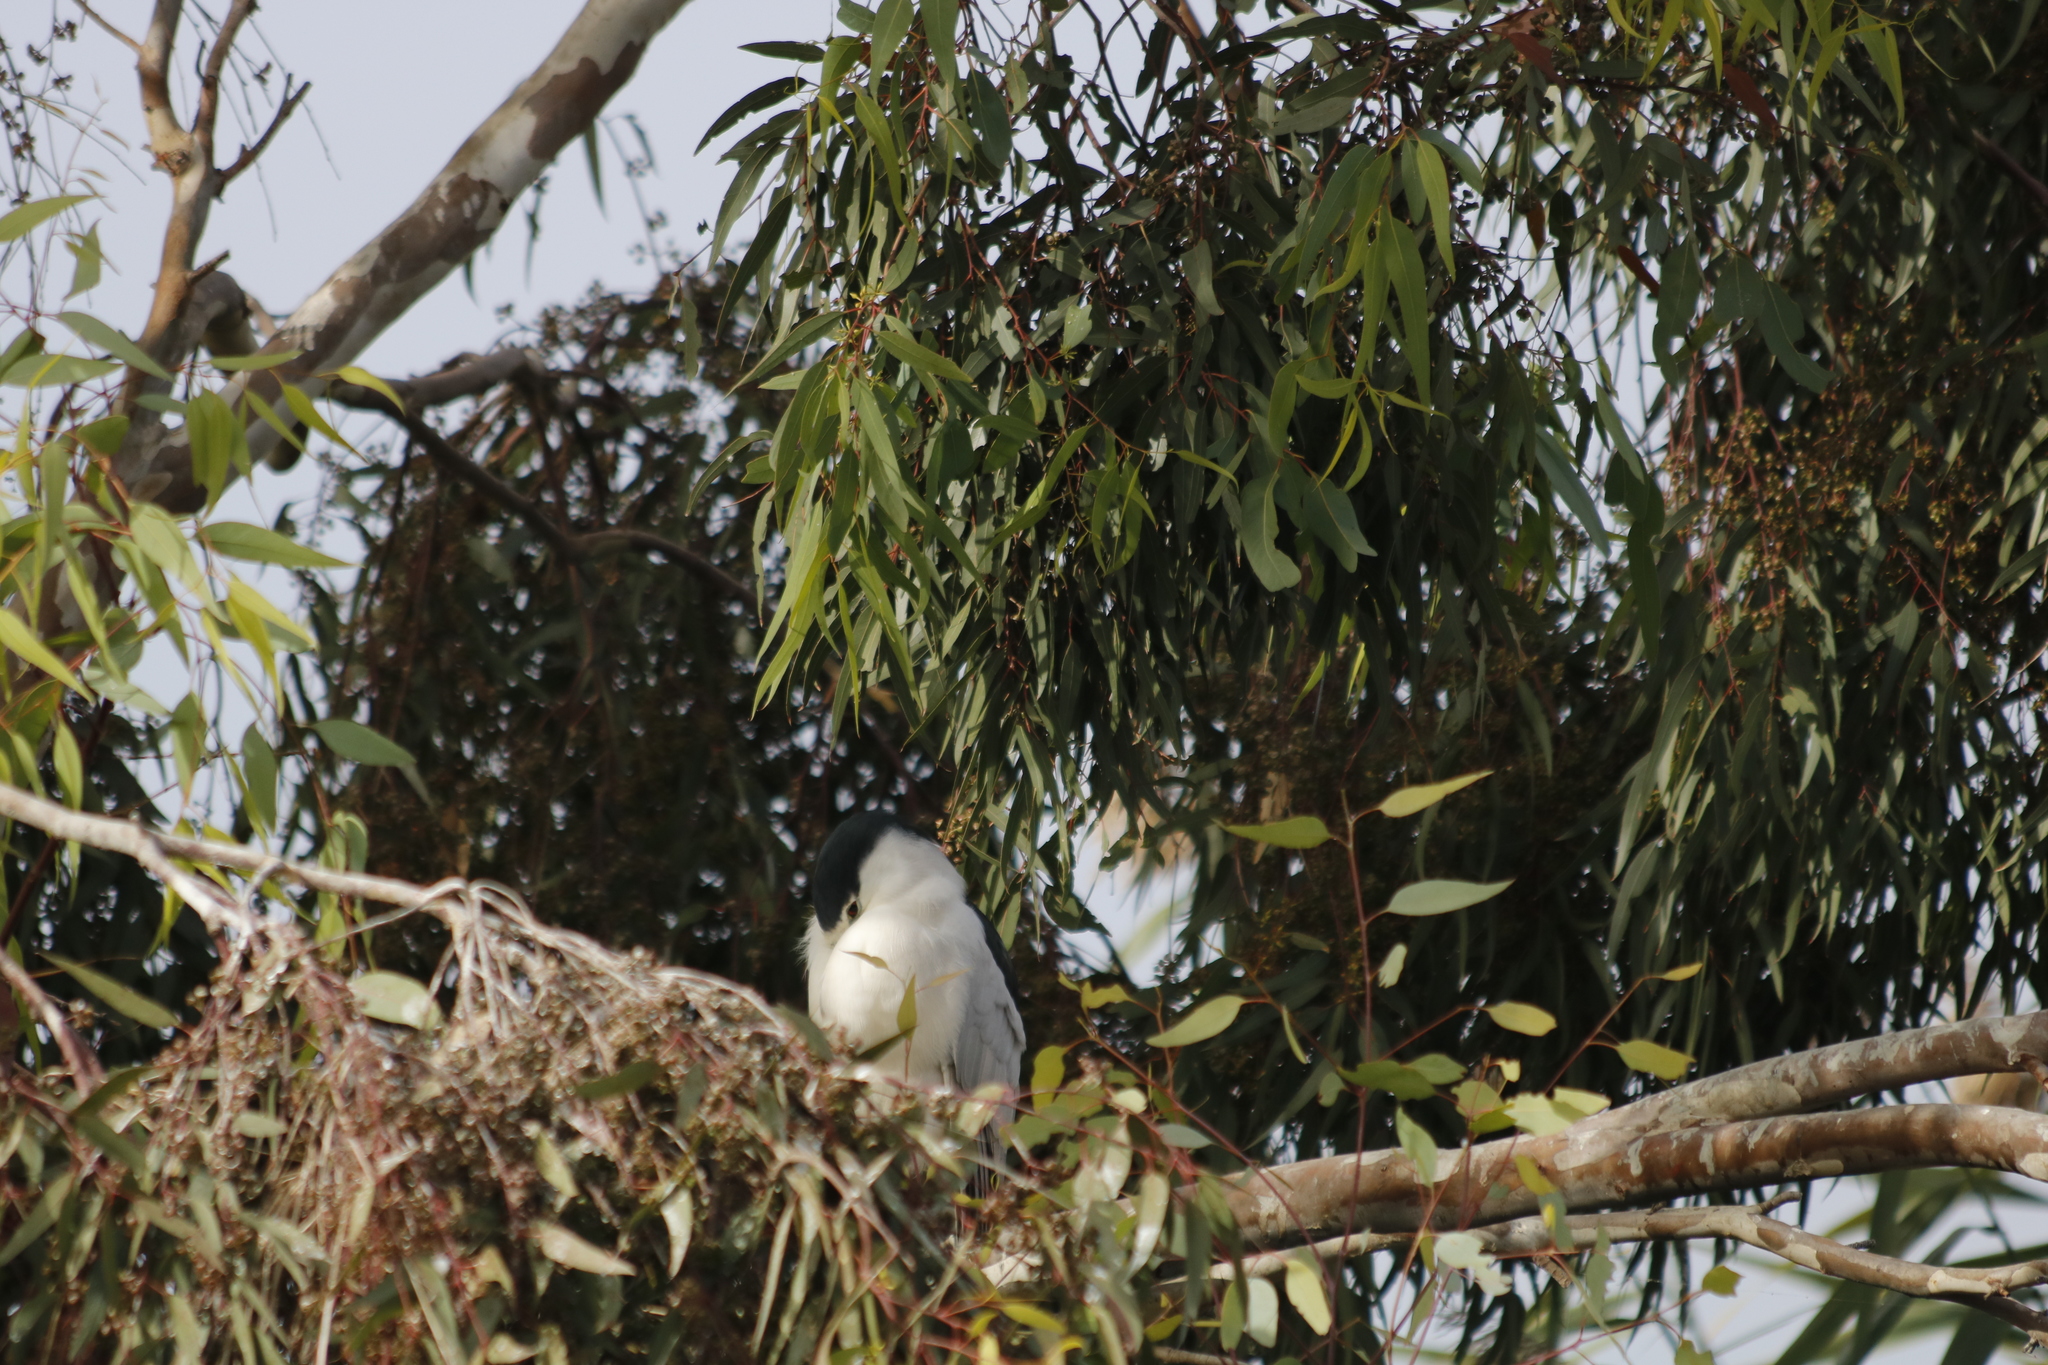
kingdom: Animalia
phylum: Chordata
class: Aves
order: Pelecaniformes
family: Ardeidae
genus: Nycticorax
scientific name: Nycticorax nycticorax
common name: Black-crowned night heron
